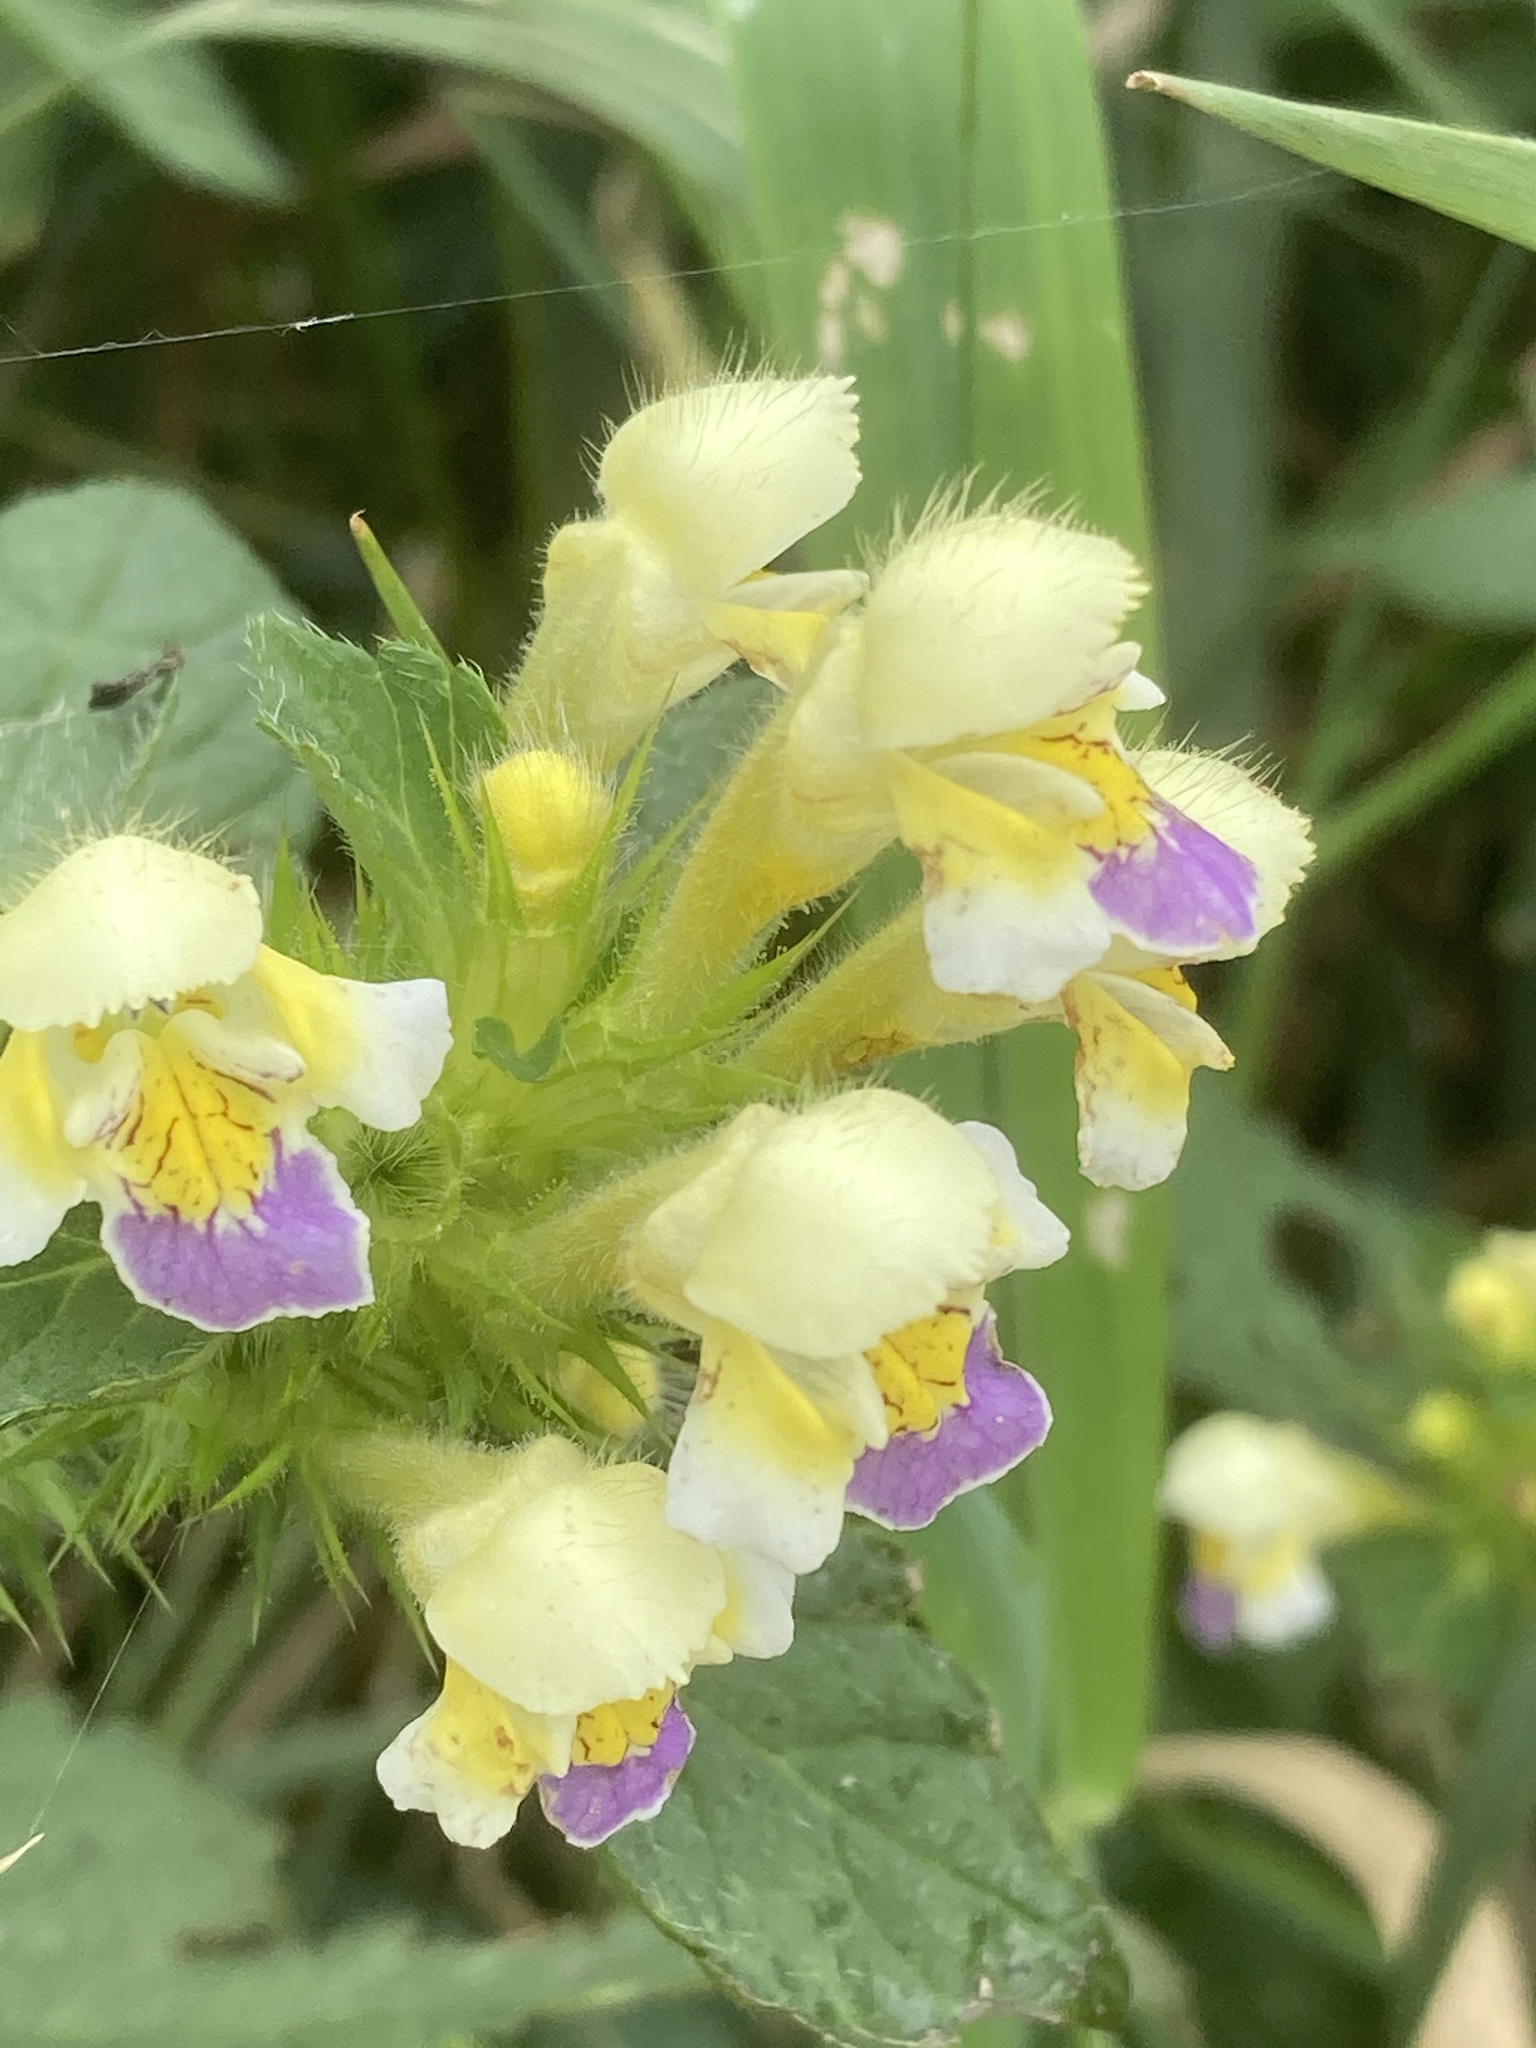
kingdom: Plantae
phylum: Tracheophyta
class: Magnoliopsida
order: Lamiales
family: Lamiaceae
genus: Galeopsis
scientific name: Galeopsis speciosa
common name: Large-flowered hemp-nettle
